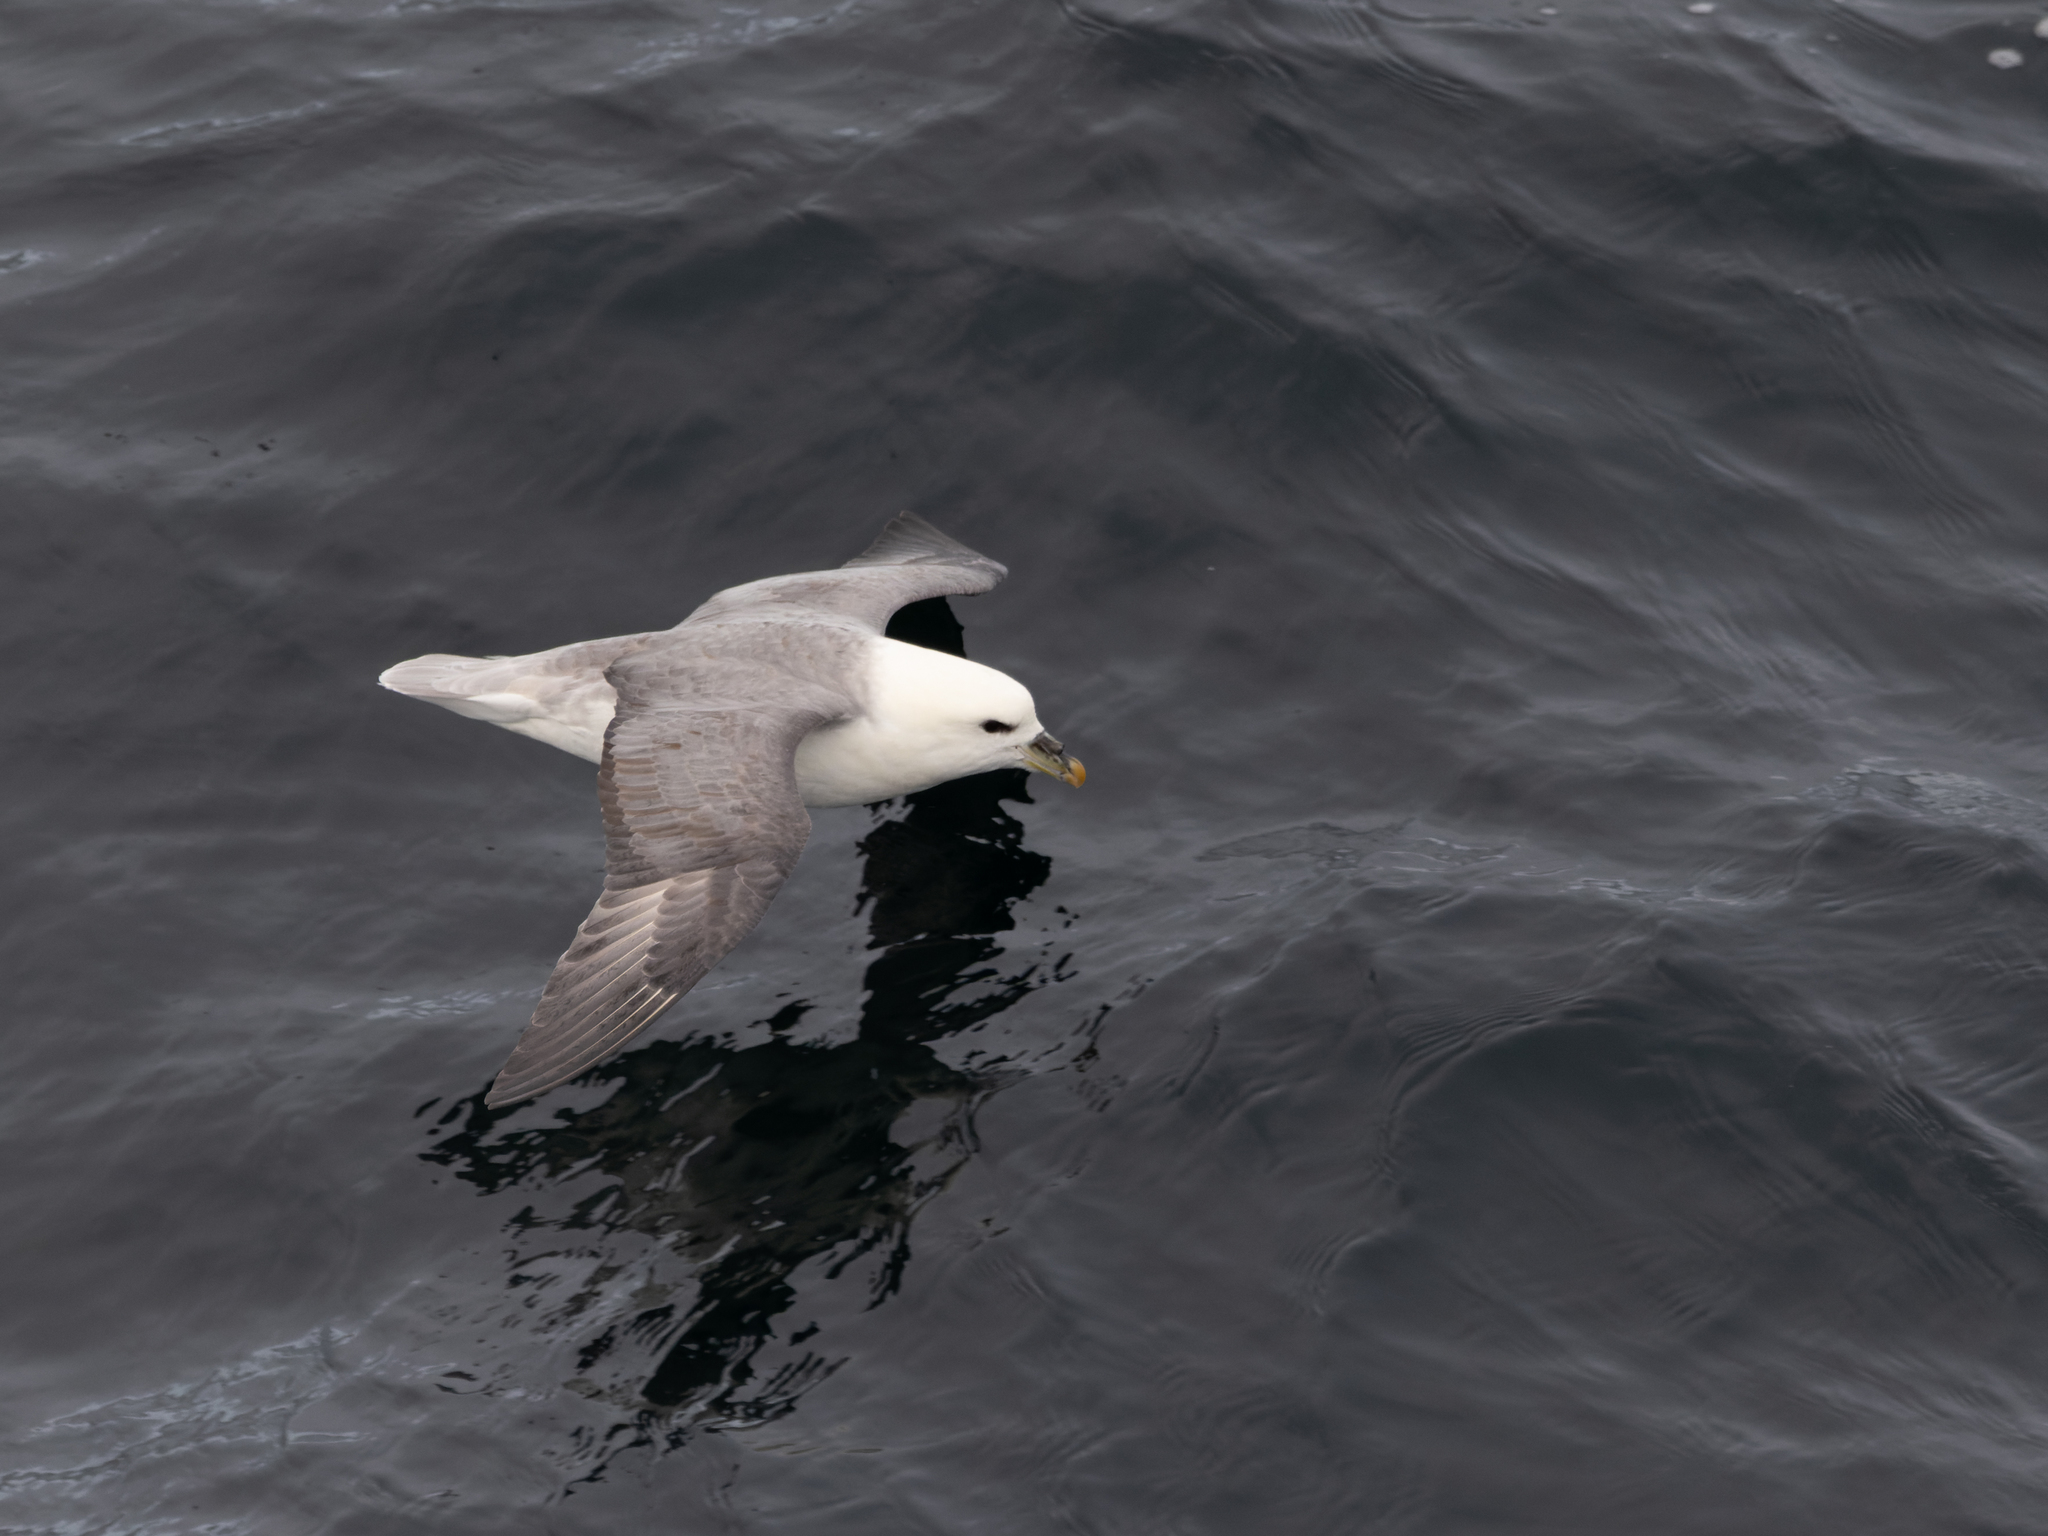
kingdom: Animalia
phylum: Chordata
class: Aves
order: Procellariiformes
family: Procellariidae
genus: Fulmarus
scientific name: Fulmarus glacialis
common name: Northern fulmar
